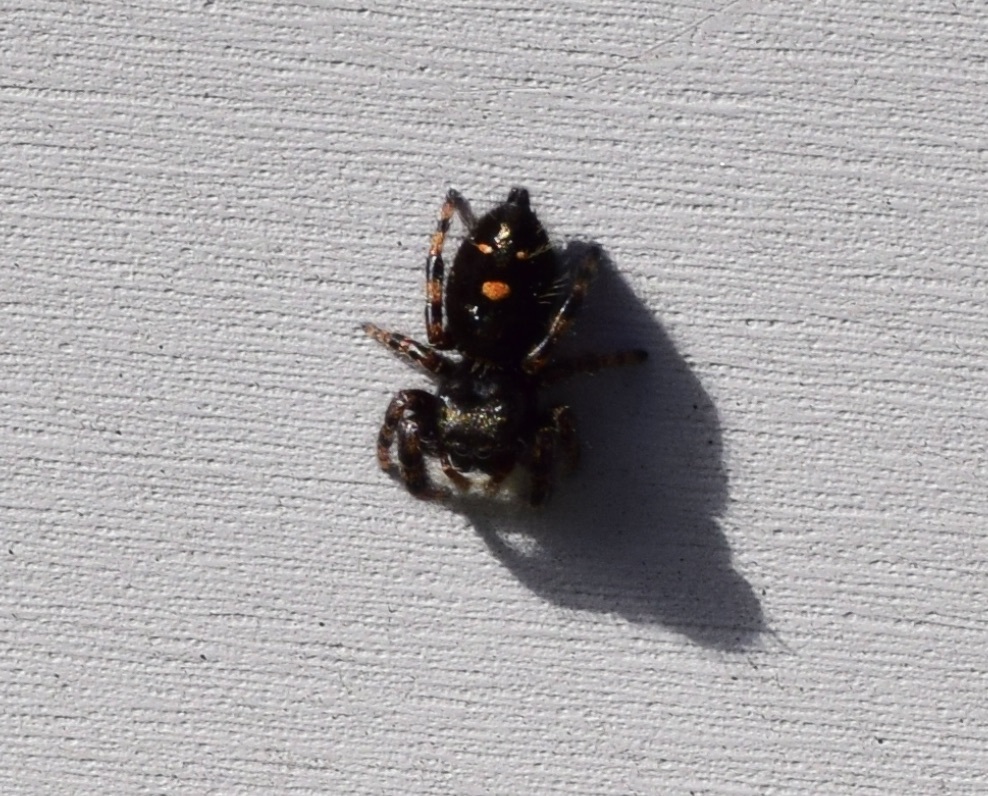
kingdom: Animalia
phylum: Arthropoda
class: Arachnida
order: Araneae
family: Salticidae
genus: Phidippus
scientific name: Phidippus audax
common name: Bold jumper
